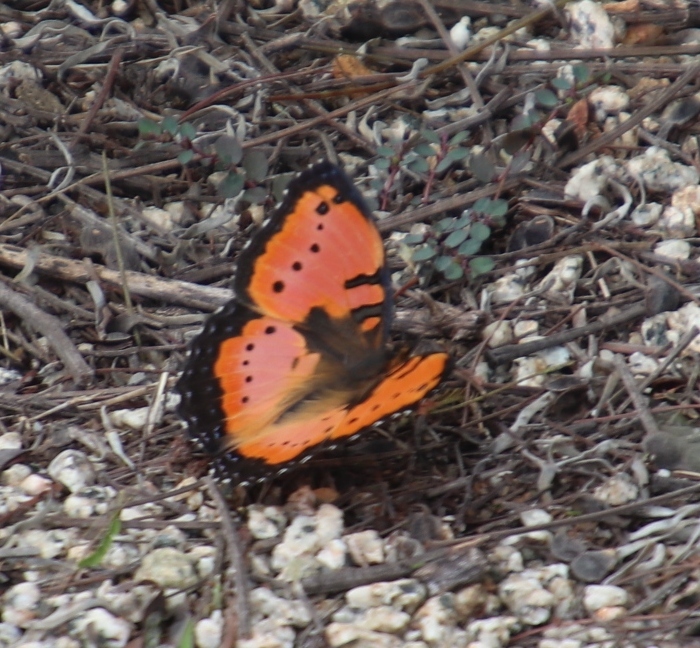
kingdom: Animalia
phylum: Arthropoda
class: Insecta
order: Lepidoptera
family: Nymphalidae
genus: Precis
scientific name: Precis octavia
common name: Gaudy commodore
